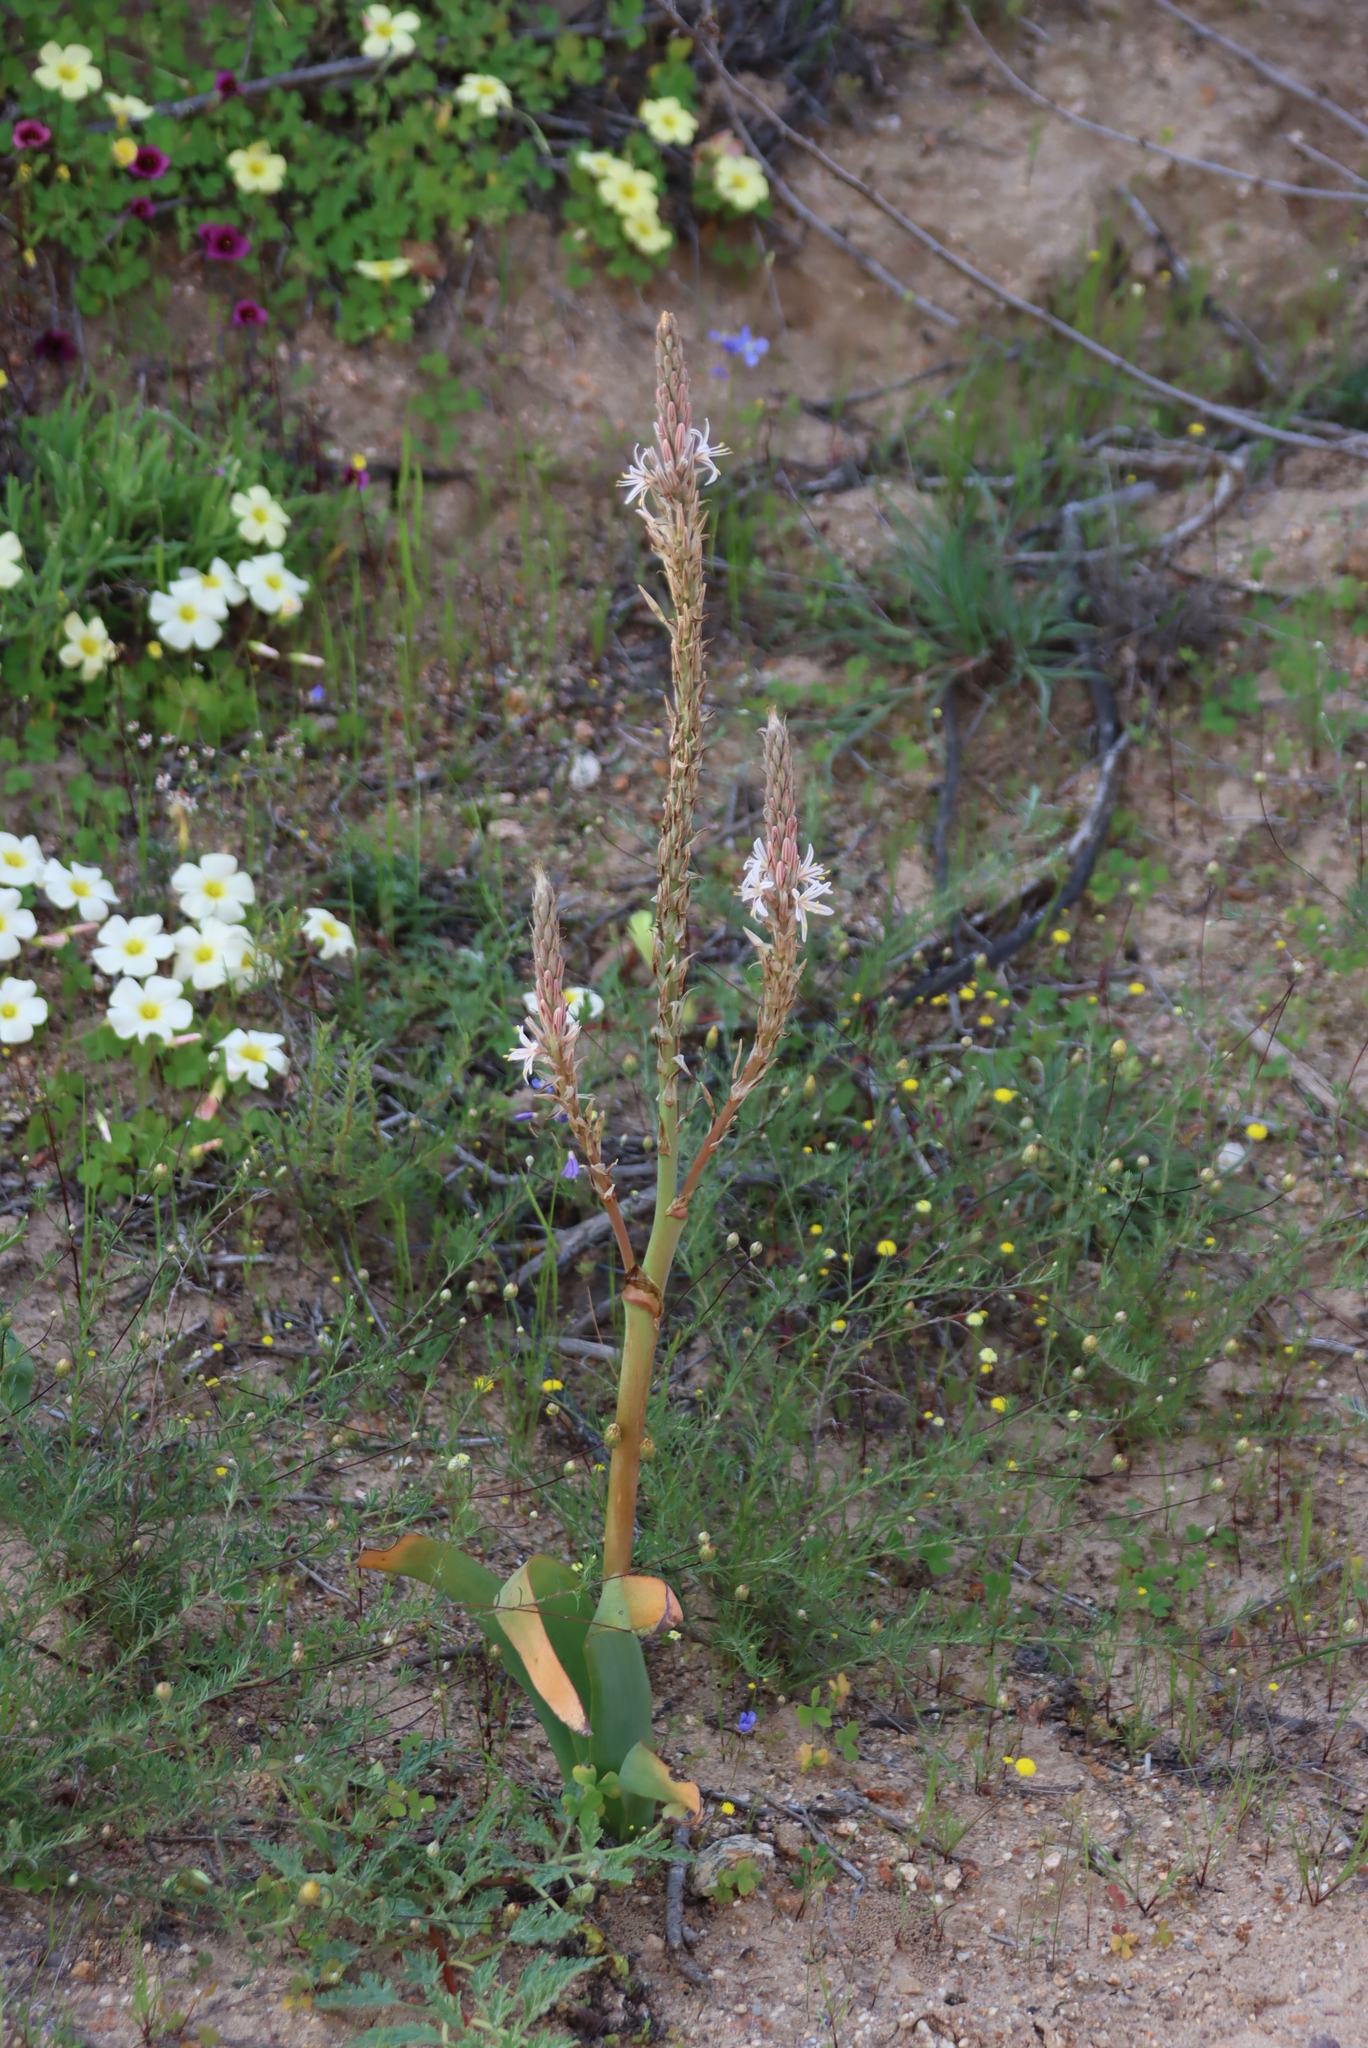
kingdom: Plantae
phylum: Tracheophyta
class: Liliopsida
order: Asparagales
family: Asphodelaceae
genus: Trachyandra
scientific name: Trachyandra falcata
